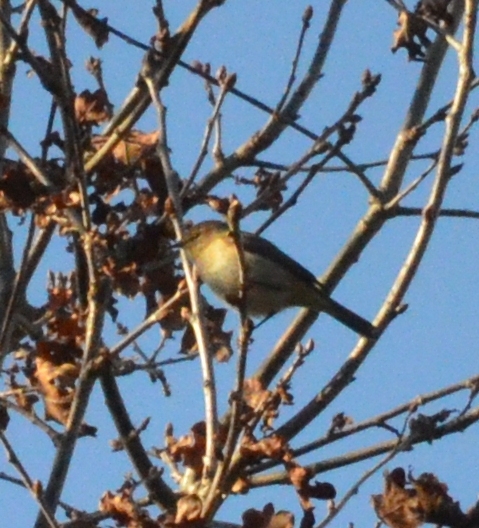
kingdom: Animalia
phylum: Chordata
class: Aves
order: Passeriformes
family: Phylloscopidae
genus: Phylloscopus
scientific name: Phylloscopus collybita
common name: Common chiffchaff
